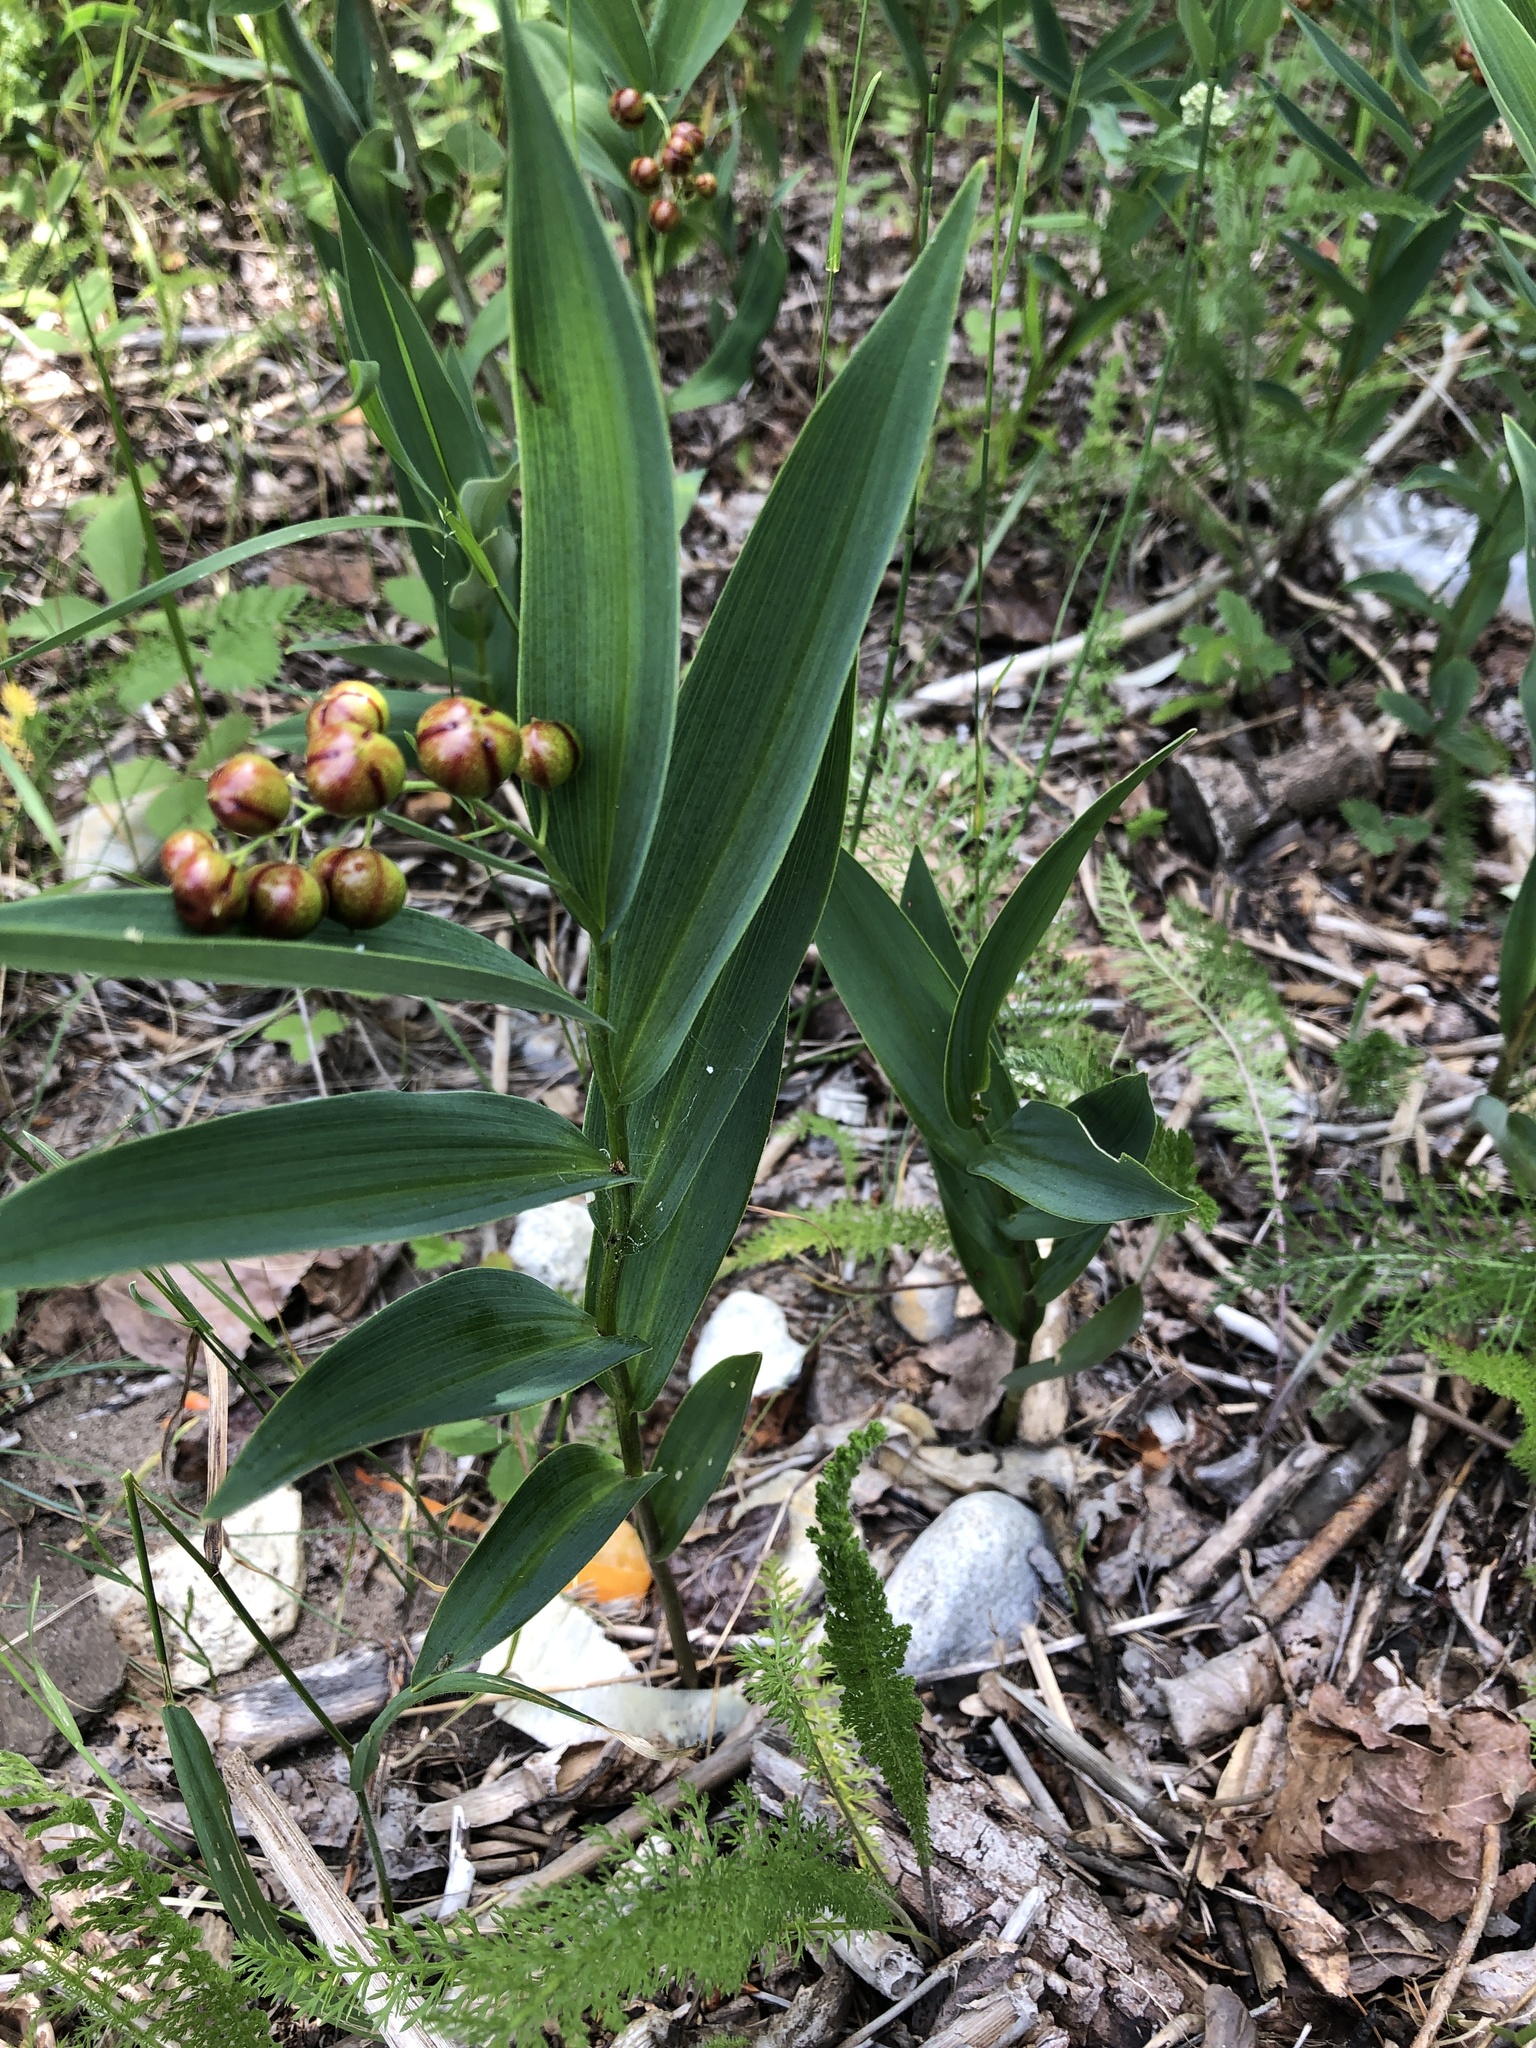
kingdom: Plantae
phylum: Tracheophyta
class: Liliopsida
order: Asparagales
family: Asparagaceae
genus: Maianthemum
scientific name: Maianthemum stellatum
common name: Little false solomon's seal
